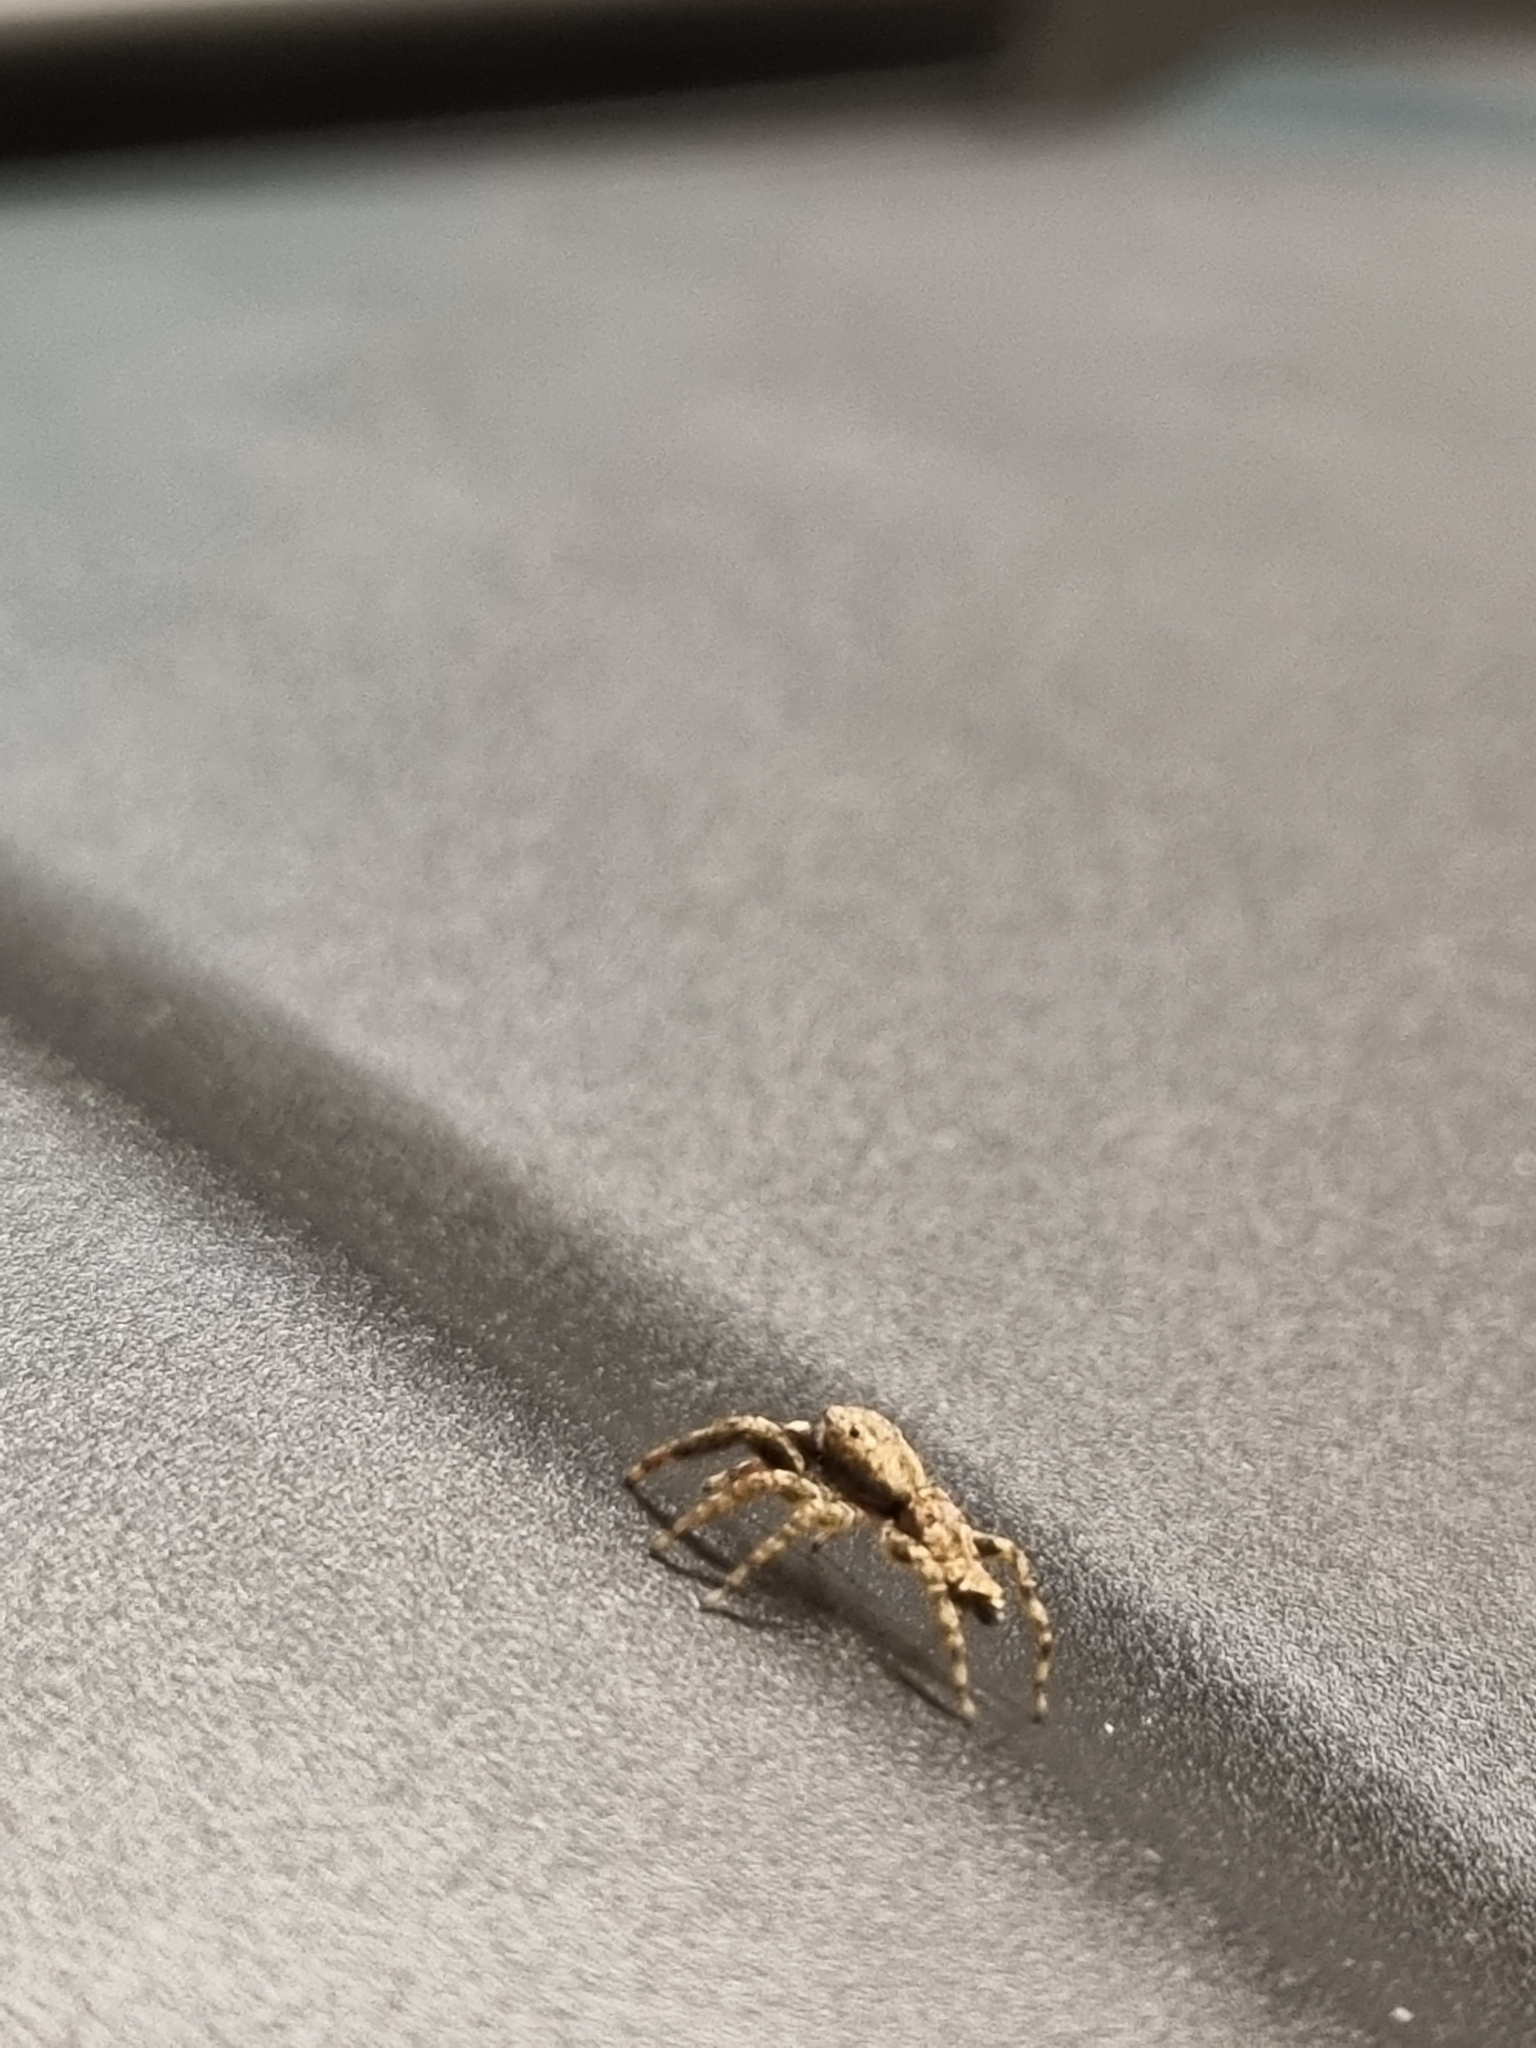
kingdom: Animalia
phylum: Arthropoda
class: Arachnida
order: Araneae
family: Salticidae
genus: Marpissa
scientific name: Marpissa muscosa
